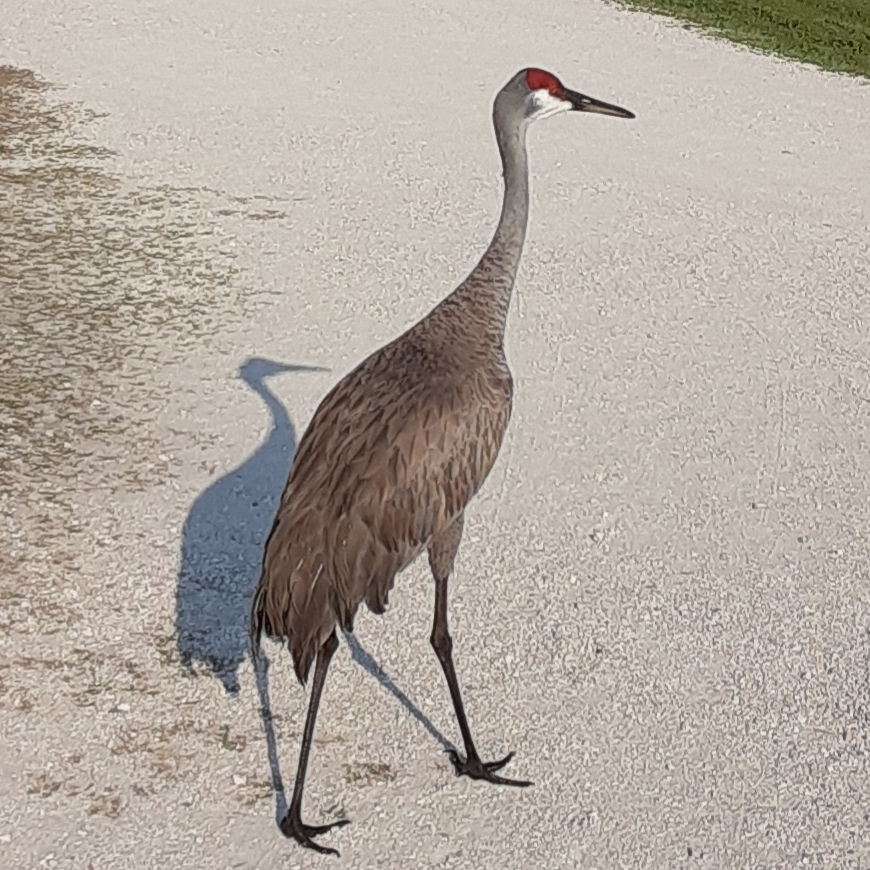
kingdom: Animalia
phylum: Chordata
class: Aves
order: Gruiformes
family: Gruidae
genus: Grus
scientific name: Grus canadensis
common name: Sandhill crane
